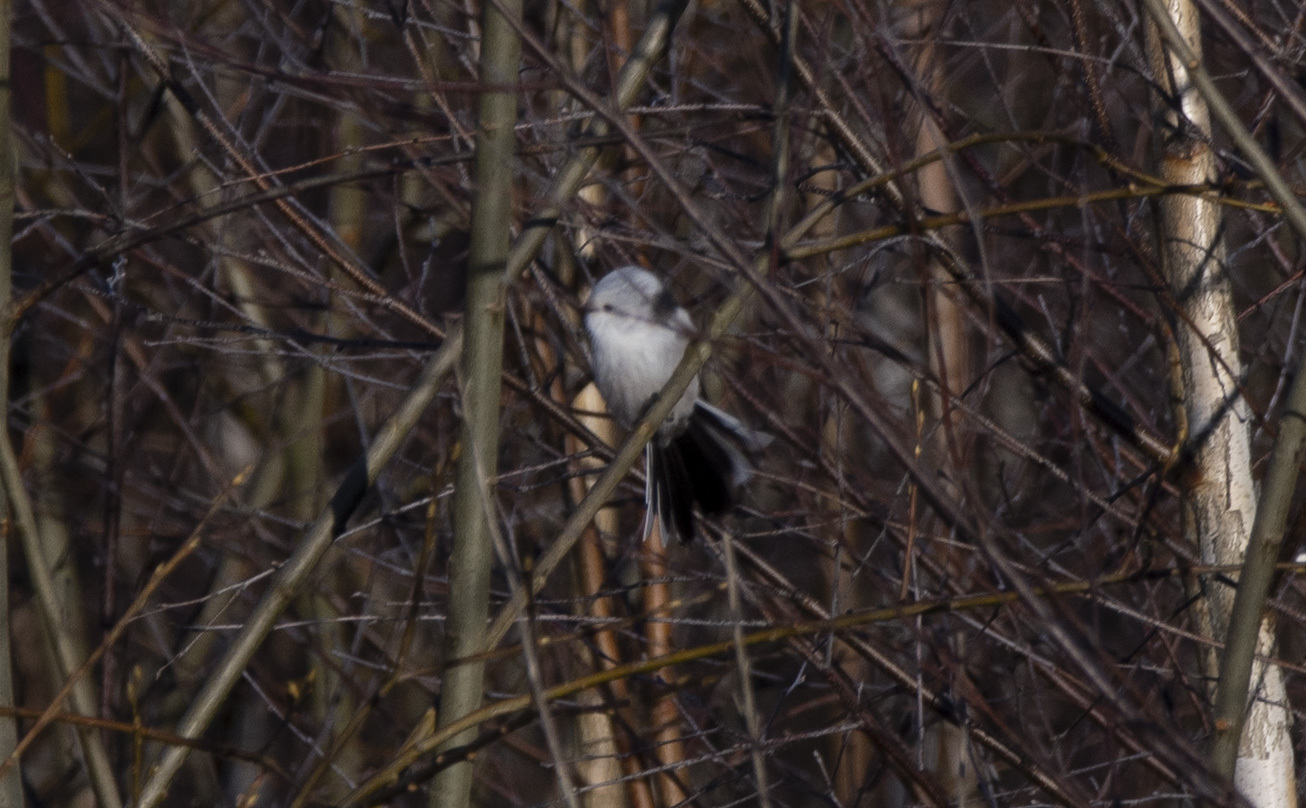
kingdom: Animalia
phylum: Chordata
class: Aves
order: Passeriformes
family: Aegithalidae
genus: Aegithalos
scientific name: Aegithalos caudatus
